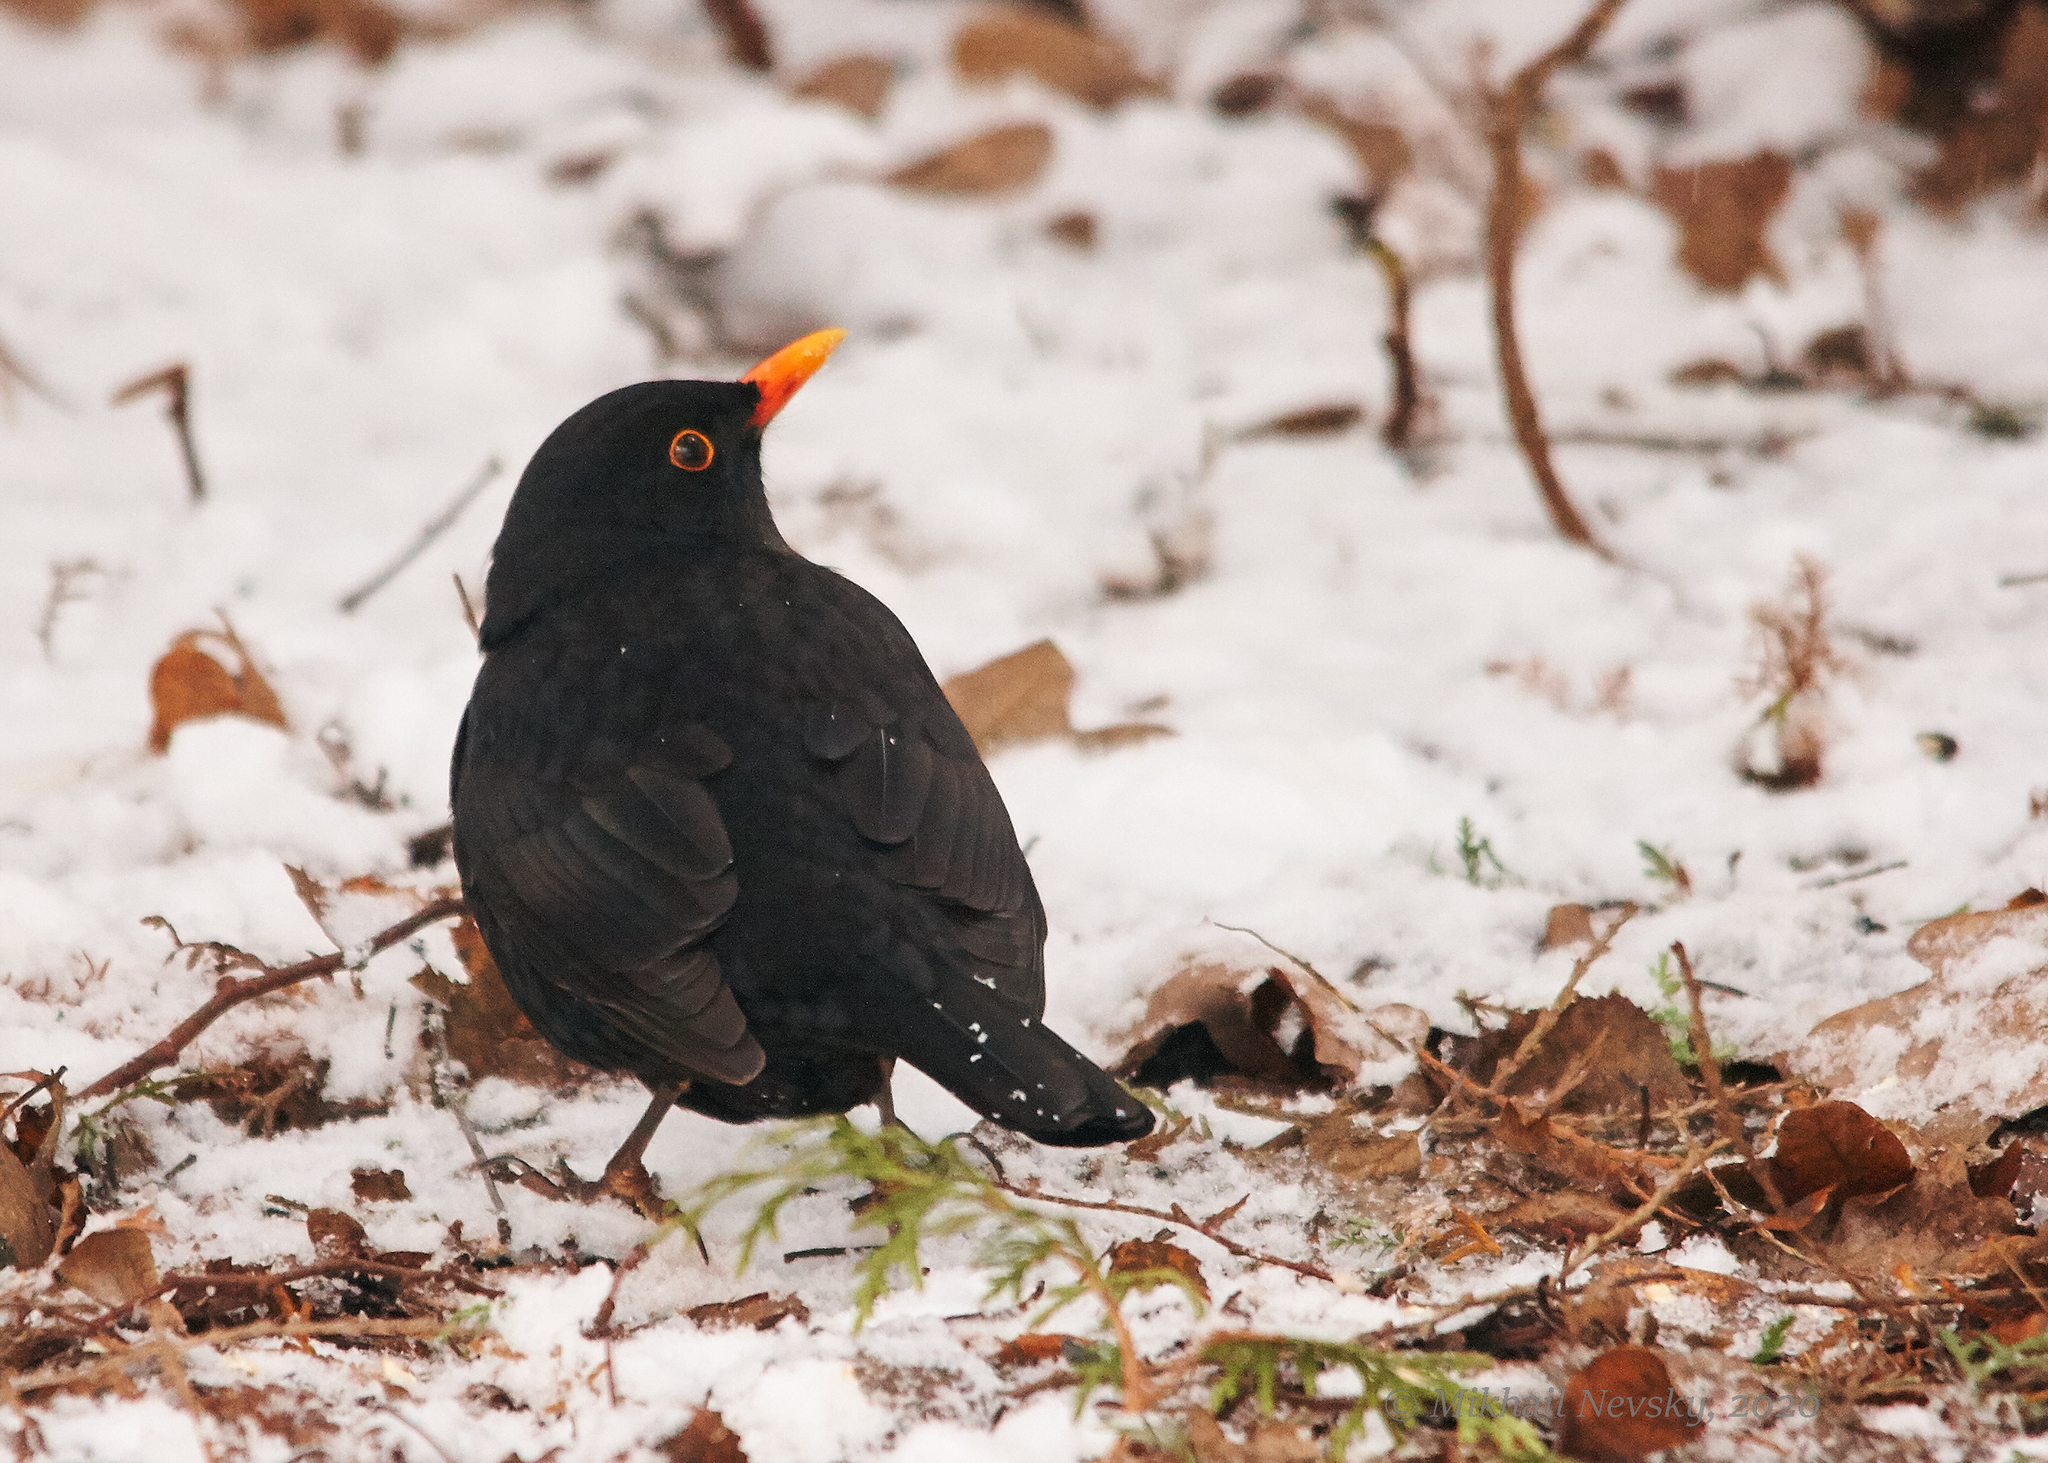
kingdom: Animalia
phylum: Chordata
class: Aves
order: Passeriformes
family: Turdidae
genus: Turdus
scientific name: Turdus merula
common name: Common blackbird
